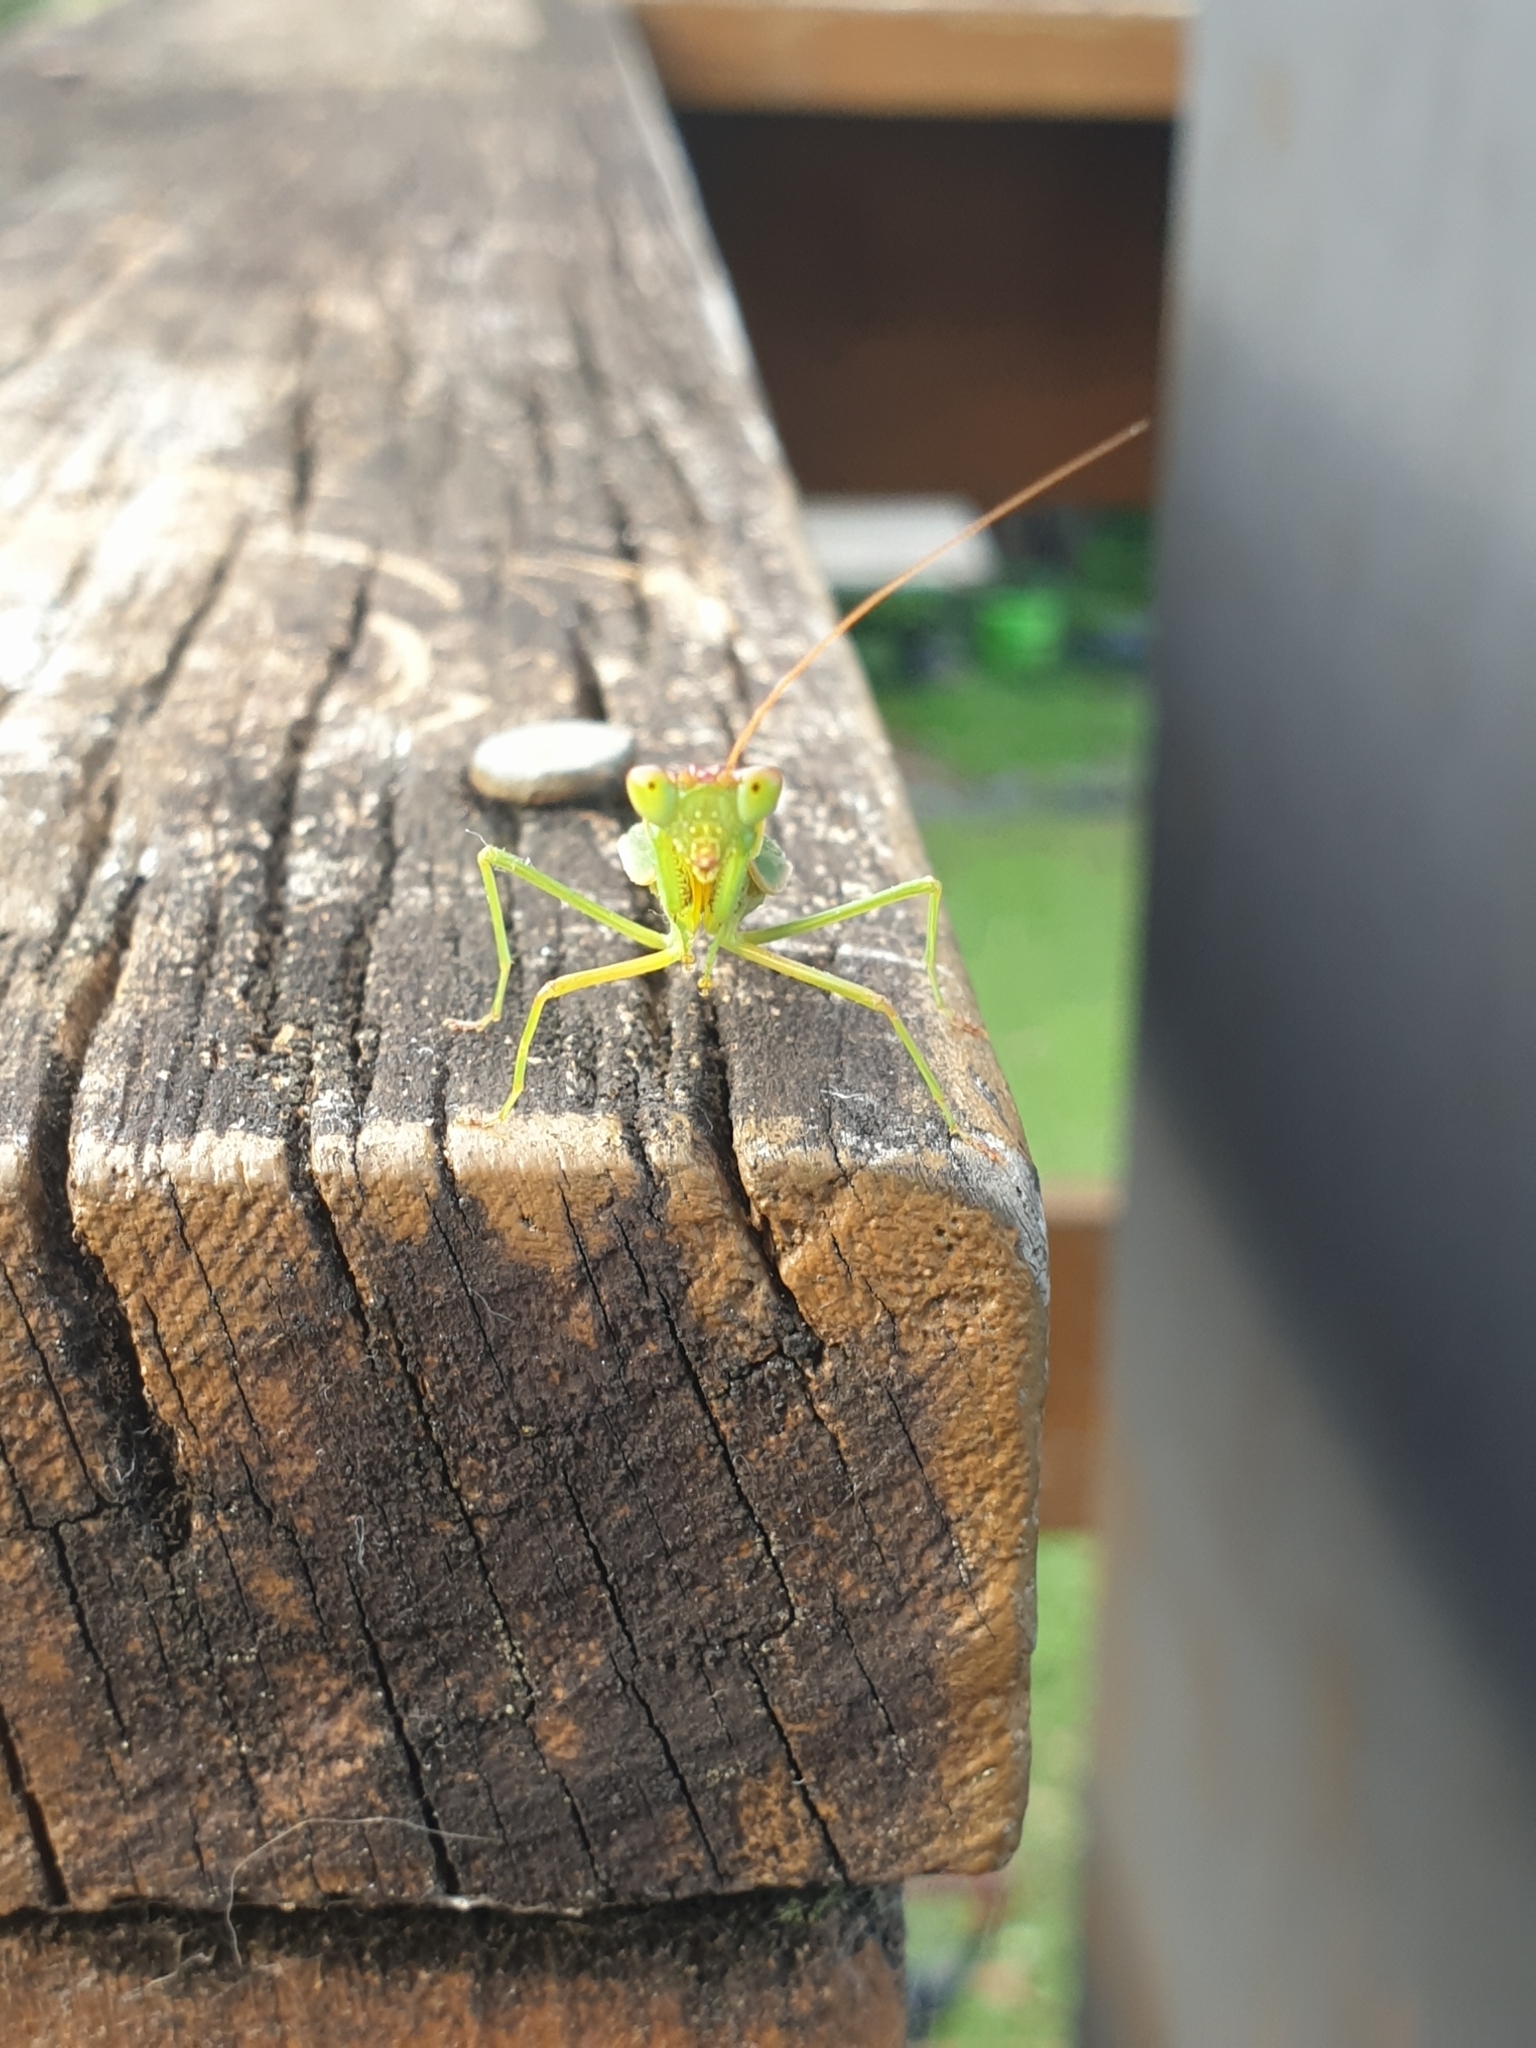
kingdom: Animalia
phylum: Arthropoda
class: Insecta
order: Mantodea
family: Mantidae
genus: Orthodera
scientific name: Orthodera novaezealandiae
